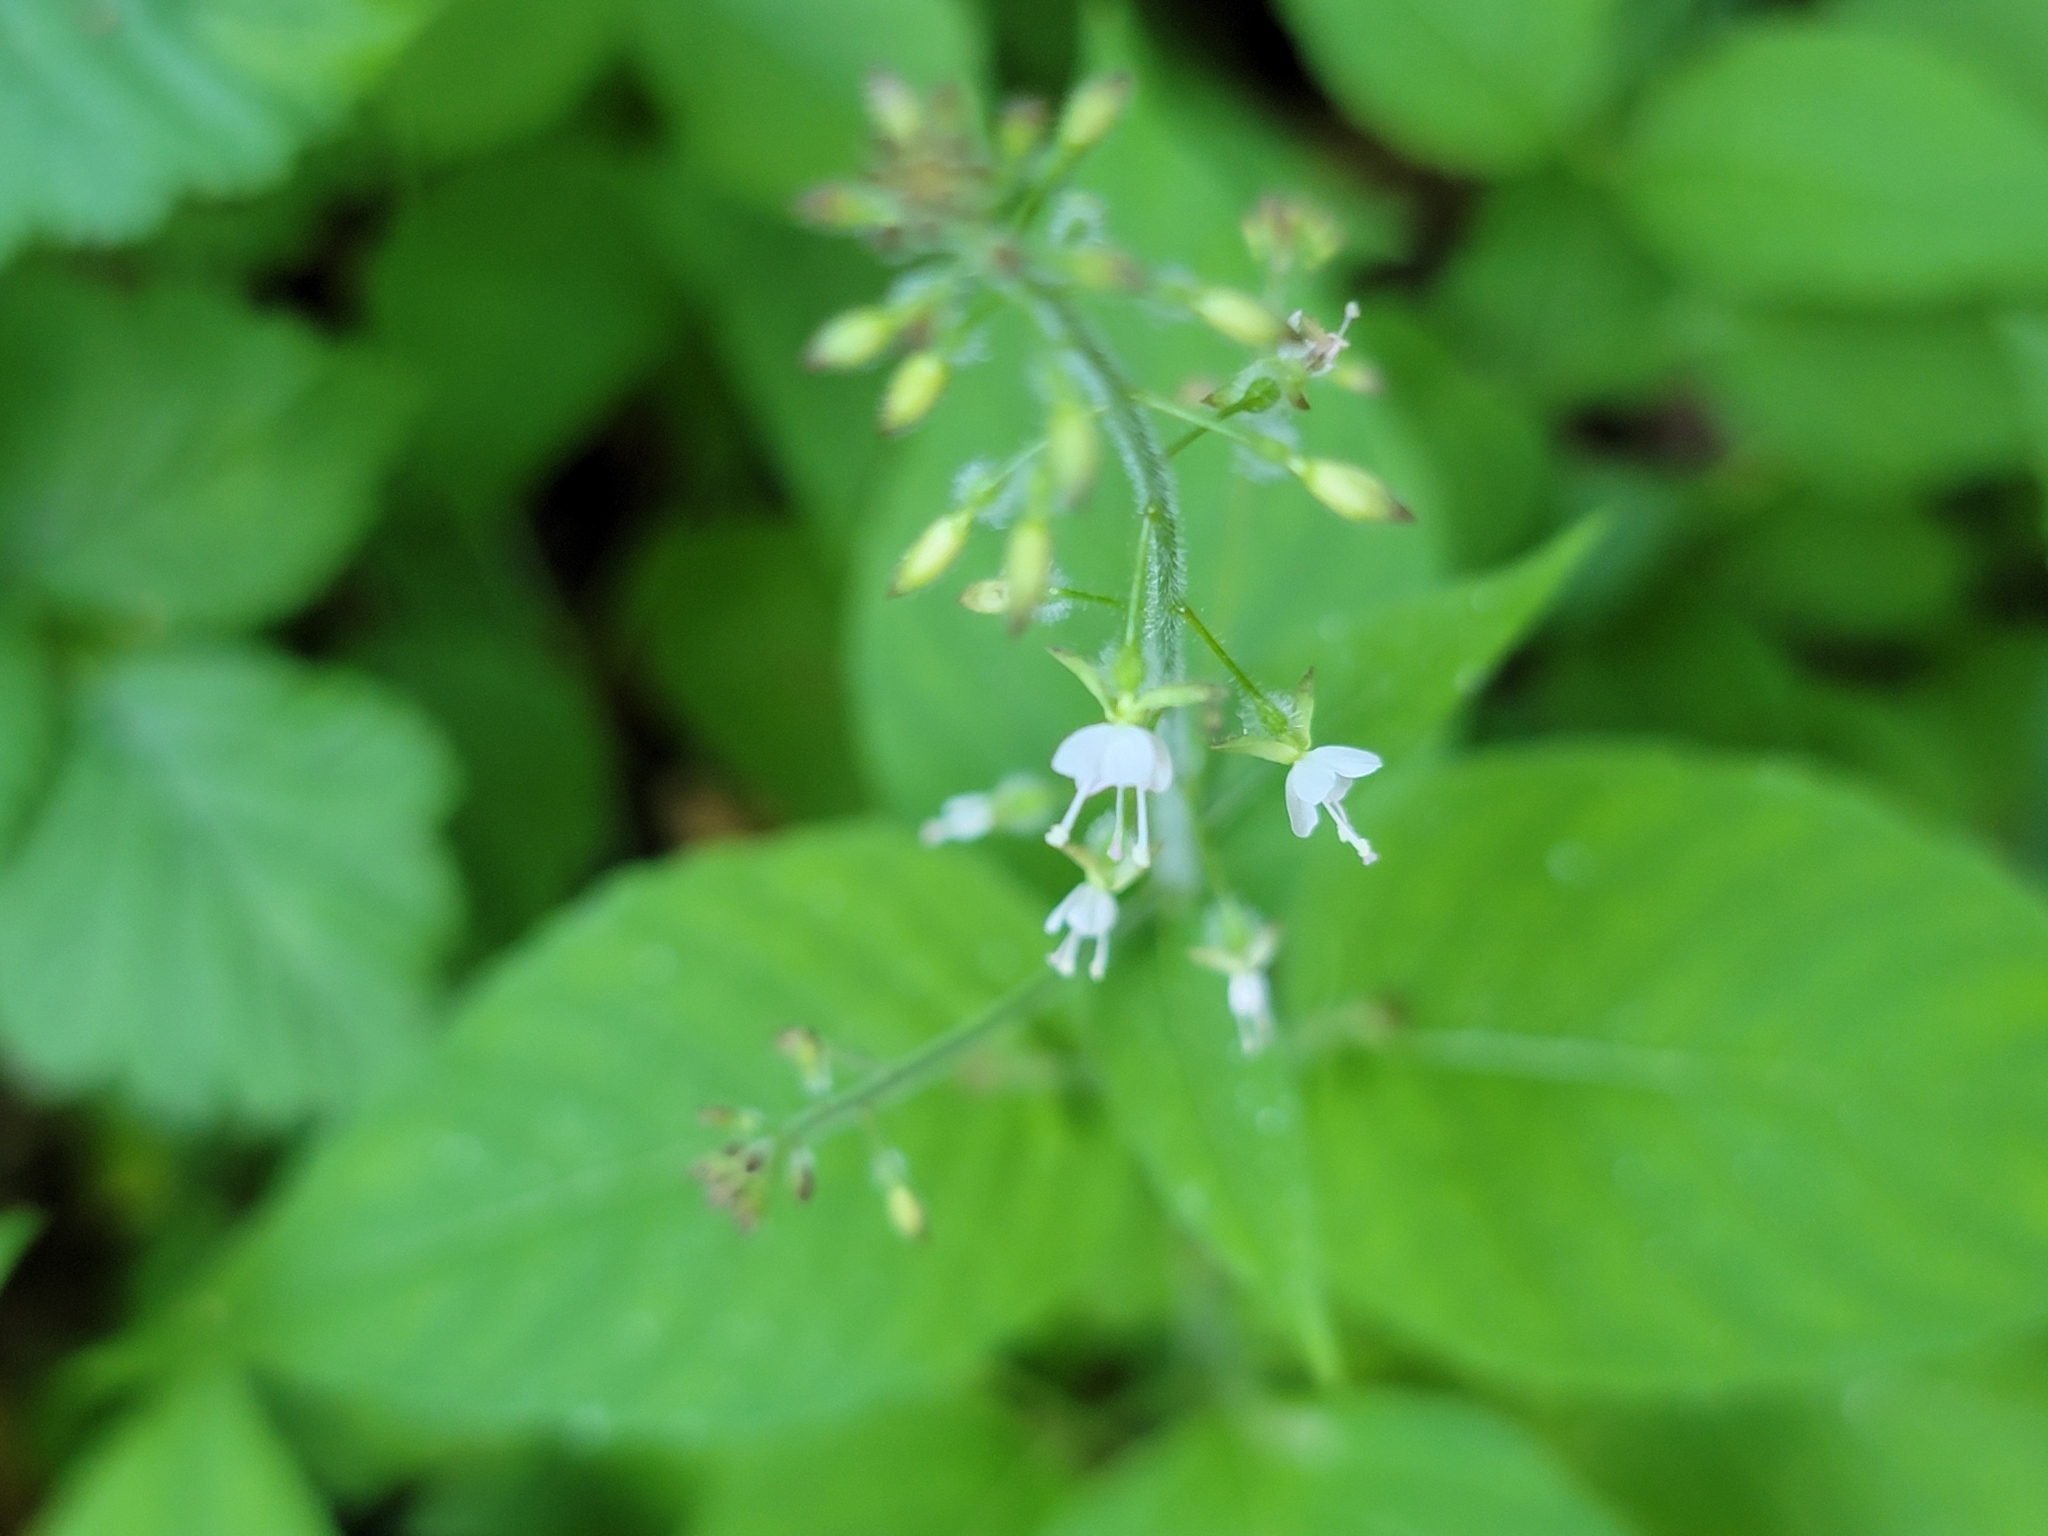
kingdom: Plantae
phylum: Tracheophyta
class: Magnoliopsida
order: Myrtales
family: Onagraceae
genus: Circaea
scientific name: Circaea lutetiana
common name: Enchanter's-nightshade
